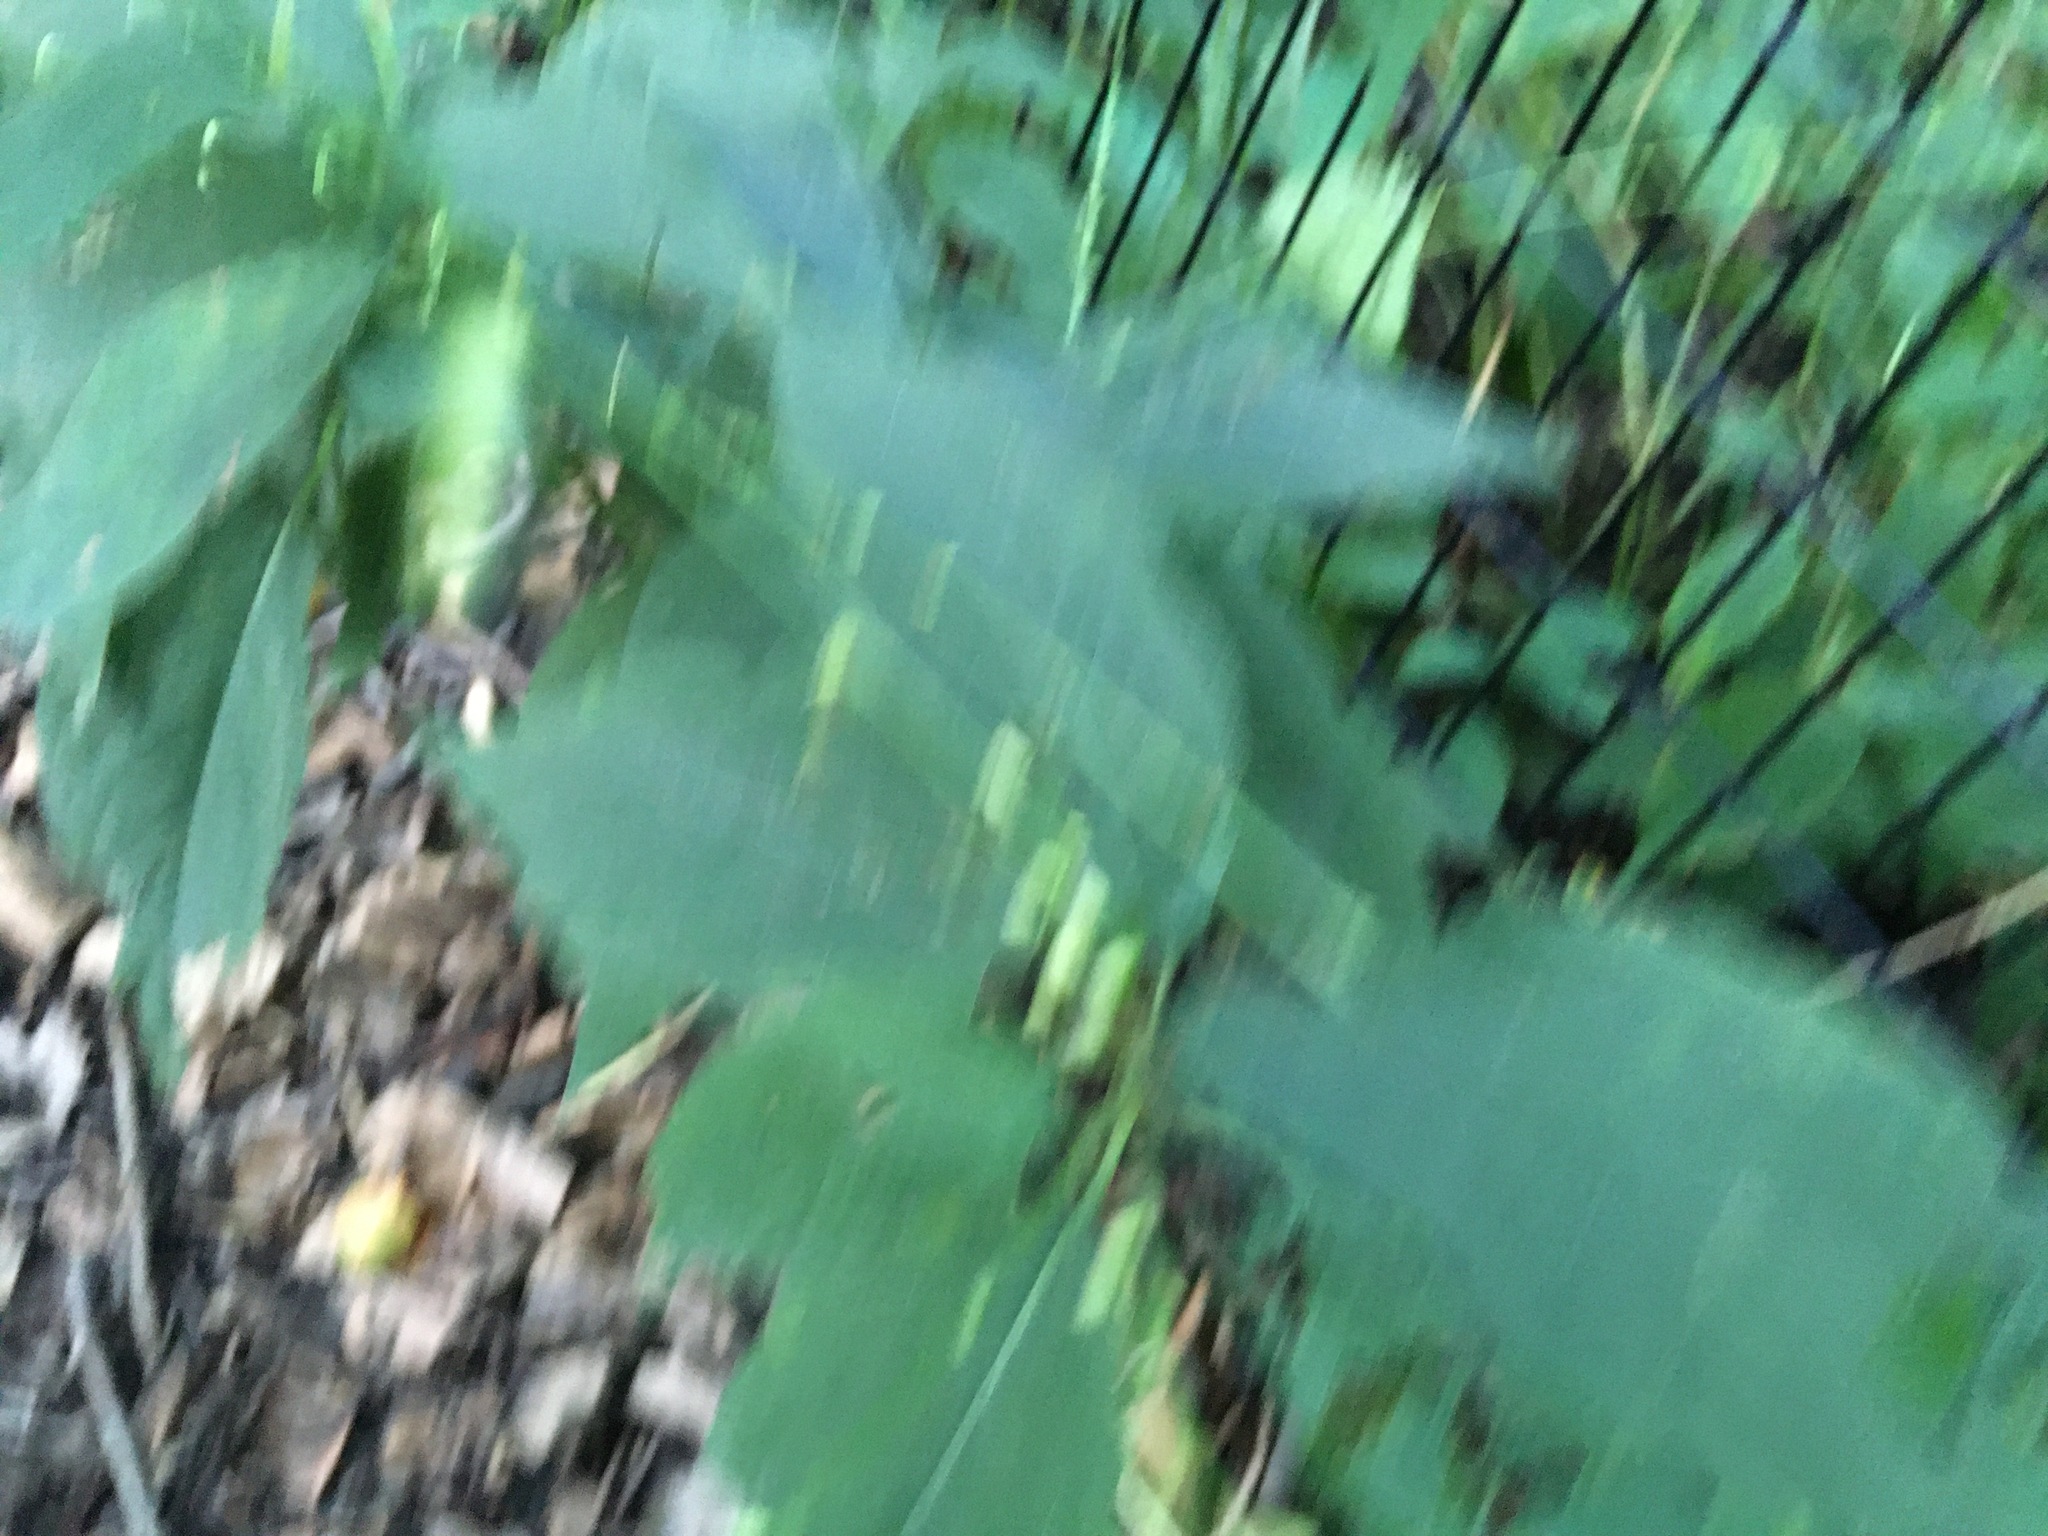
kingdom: Plantae
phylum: Tracheophyta
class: Magnoliopsida
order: Caryophyllales
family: Polygonaceae
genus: Persicaria
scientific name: Persicaria virginiana
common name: Jumpseed
